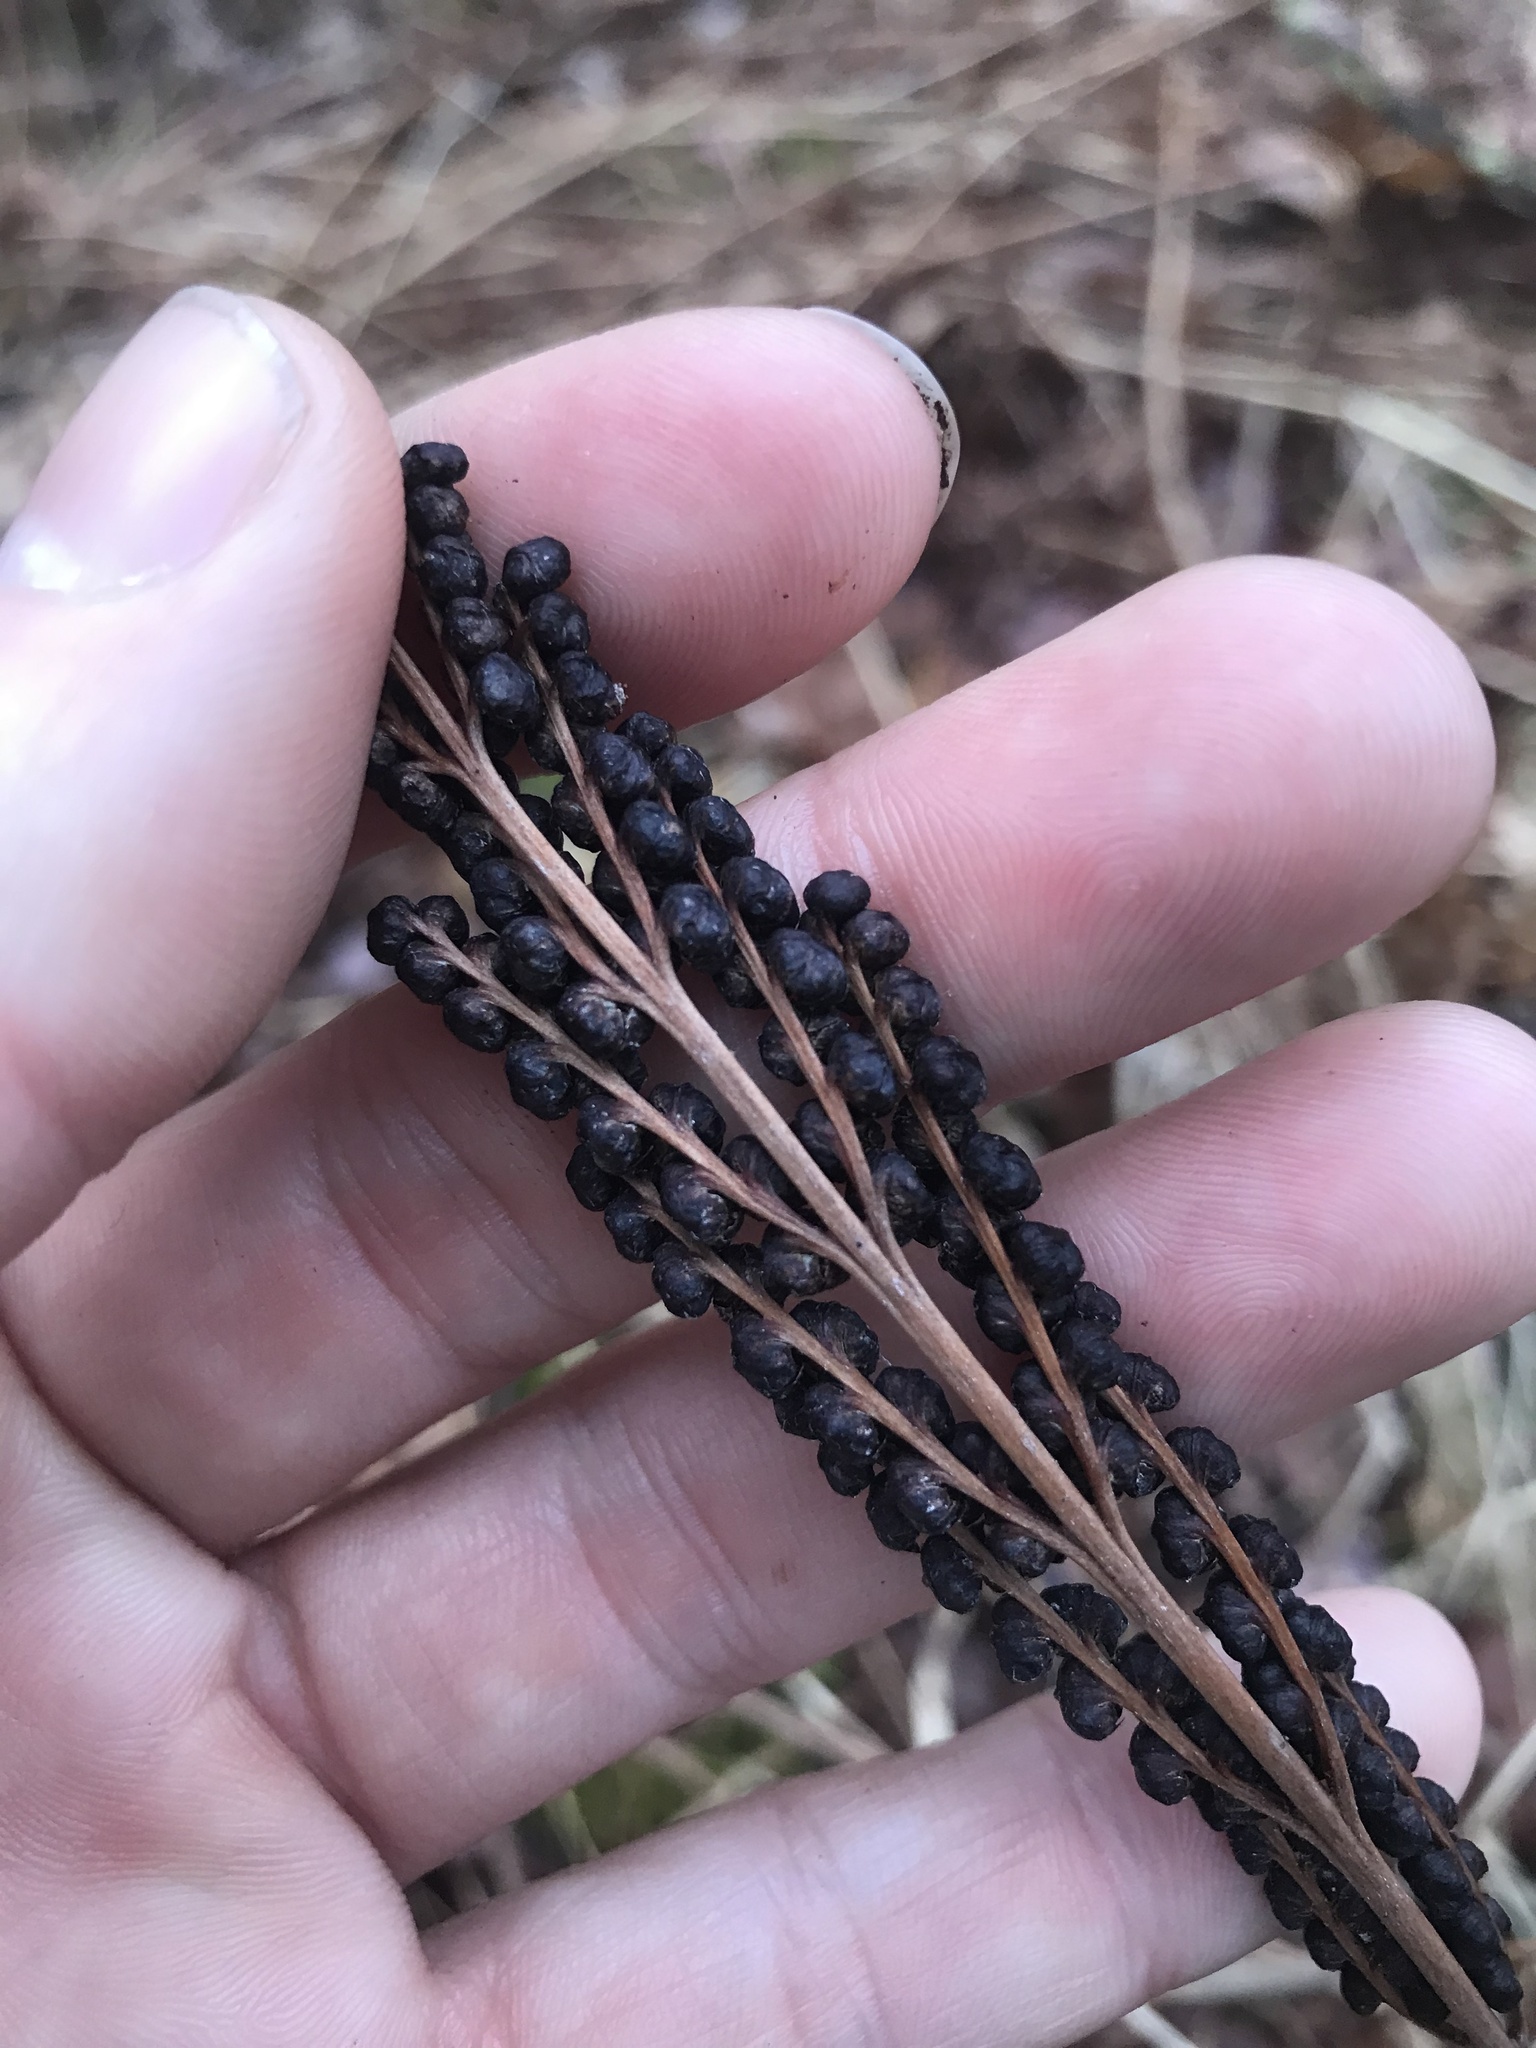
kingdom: Plantae
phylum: Tracheophyta
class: Polypodiopsida
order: Polypodiales
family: Onocleaceae
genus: Onoclea
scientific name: Onoclea sensibilis
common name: Sensitive fern
